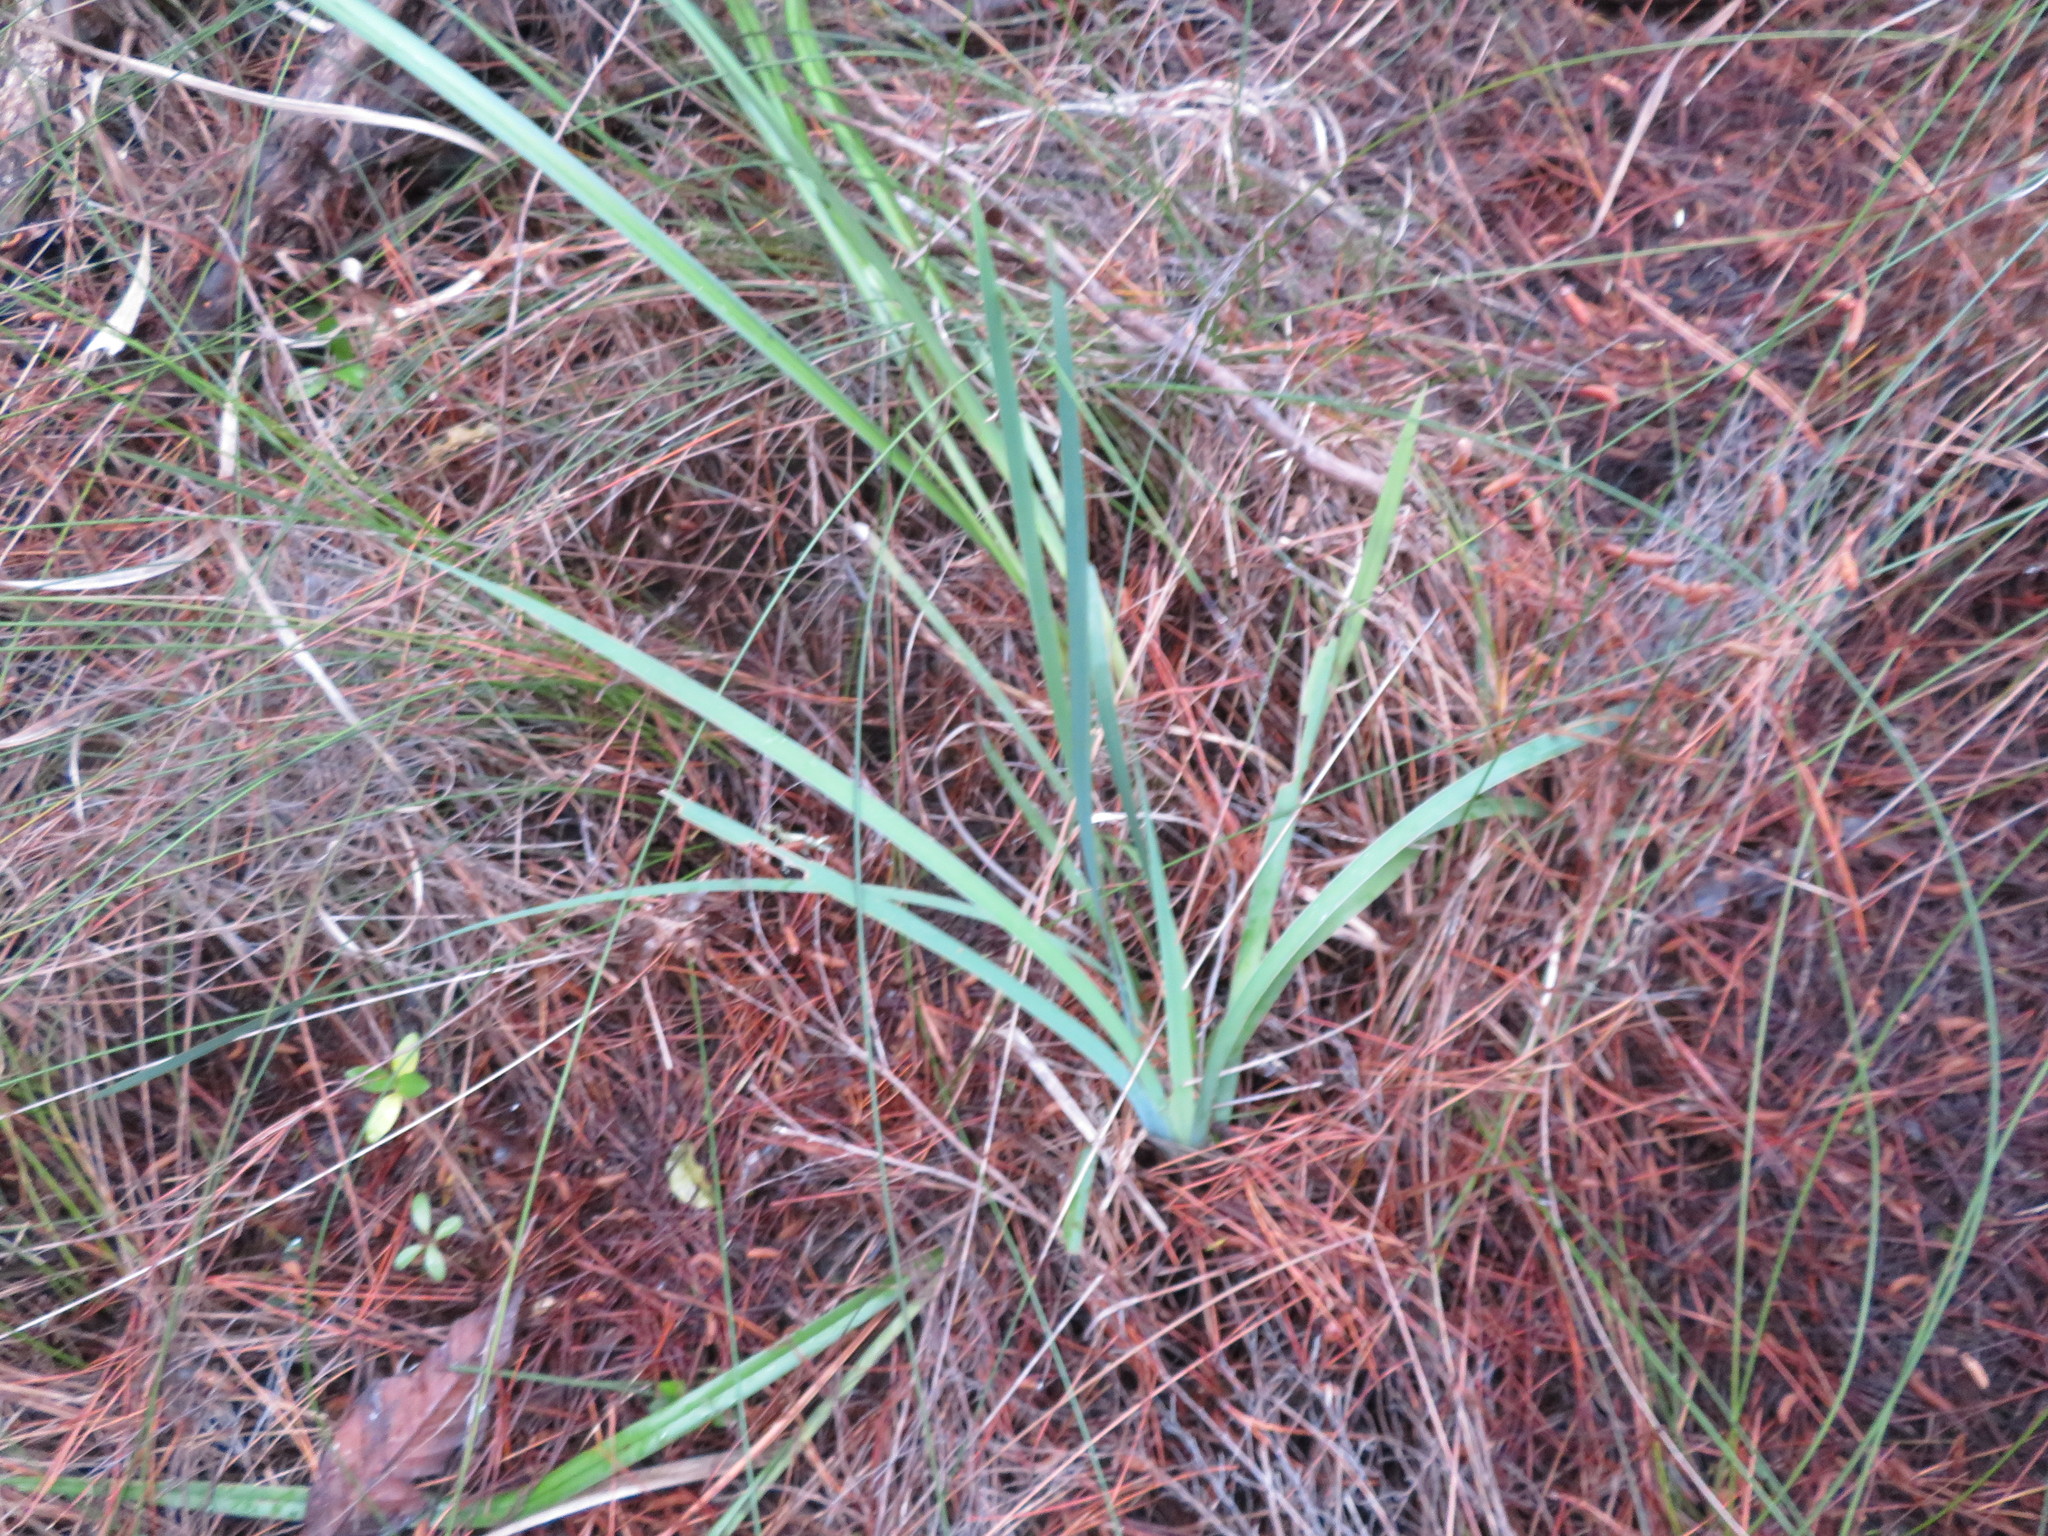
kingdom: Plantae
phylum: Tracheophyta
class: Liliopsida
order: Asparagales
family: Iridaceae
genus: Aristea
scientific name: Aristea ecklonii
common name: Blue corn-lily
